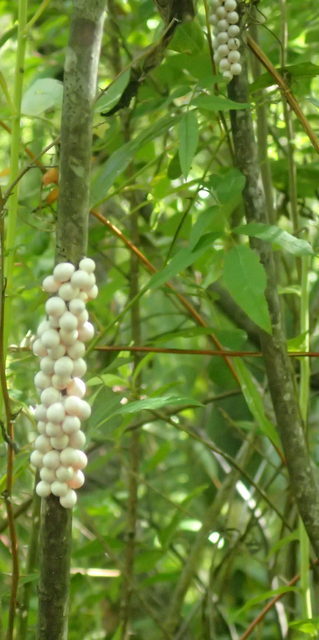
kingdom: Animalia
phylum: Mollusca
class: Gastropoda
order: Architaenioglossa
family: Ampullariidae
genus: Pomacea
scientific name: Pomacea paludosa
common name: Florida applesnail
